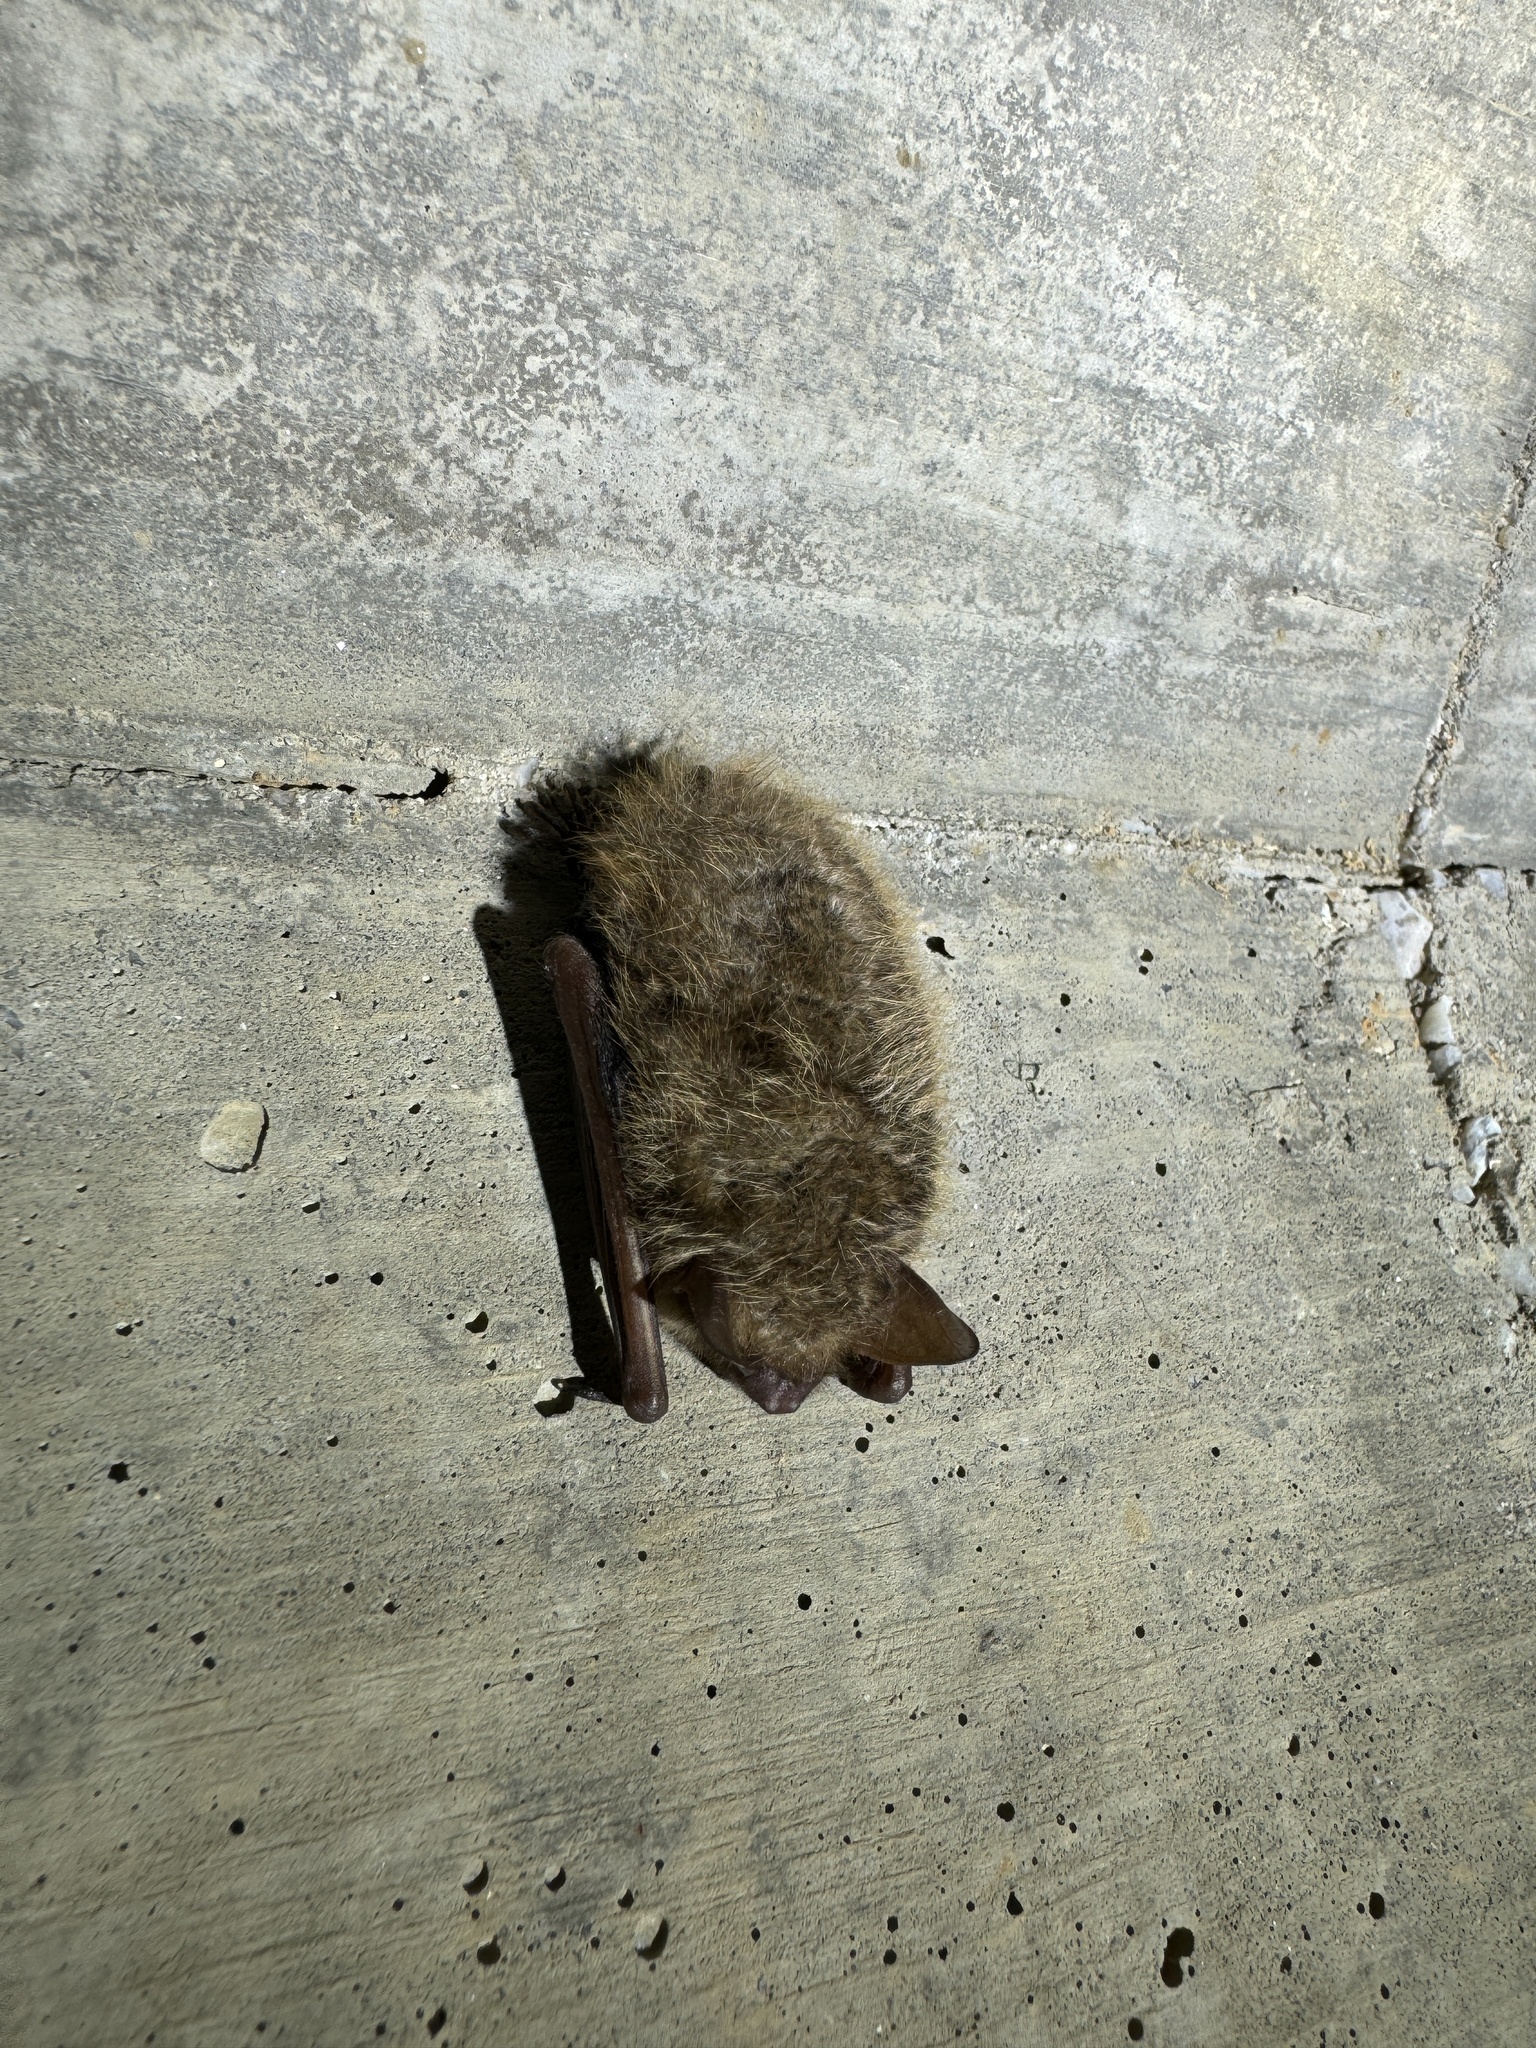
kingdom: Animalia
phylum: Chordata
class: Mammalia
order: Chiroptera
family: Vespertilionidae
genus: Perimyotis
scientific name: Perimyotis subflavus
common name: Eastern pipistrelle
